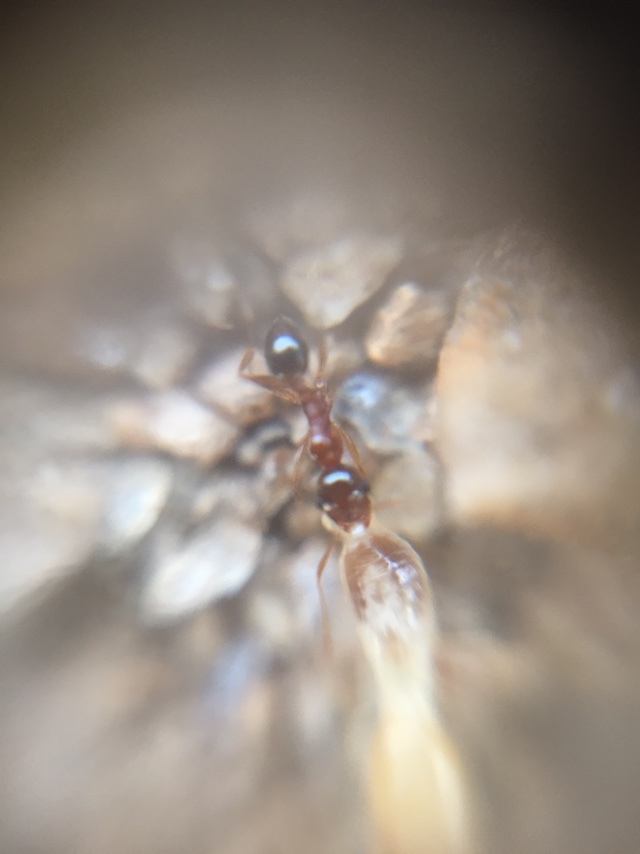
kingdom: Animalia
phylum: Arthropoda
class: Insecta
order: Hymenoptera
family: Formicidae
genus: Pheidole
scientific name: Pheidole indica
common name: Big-headed ant
